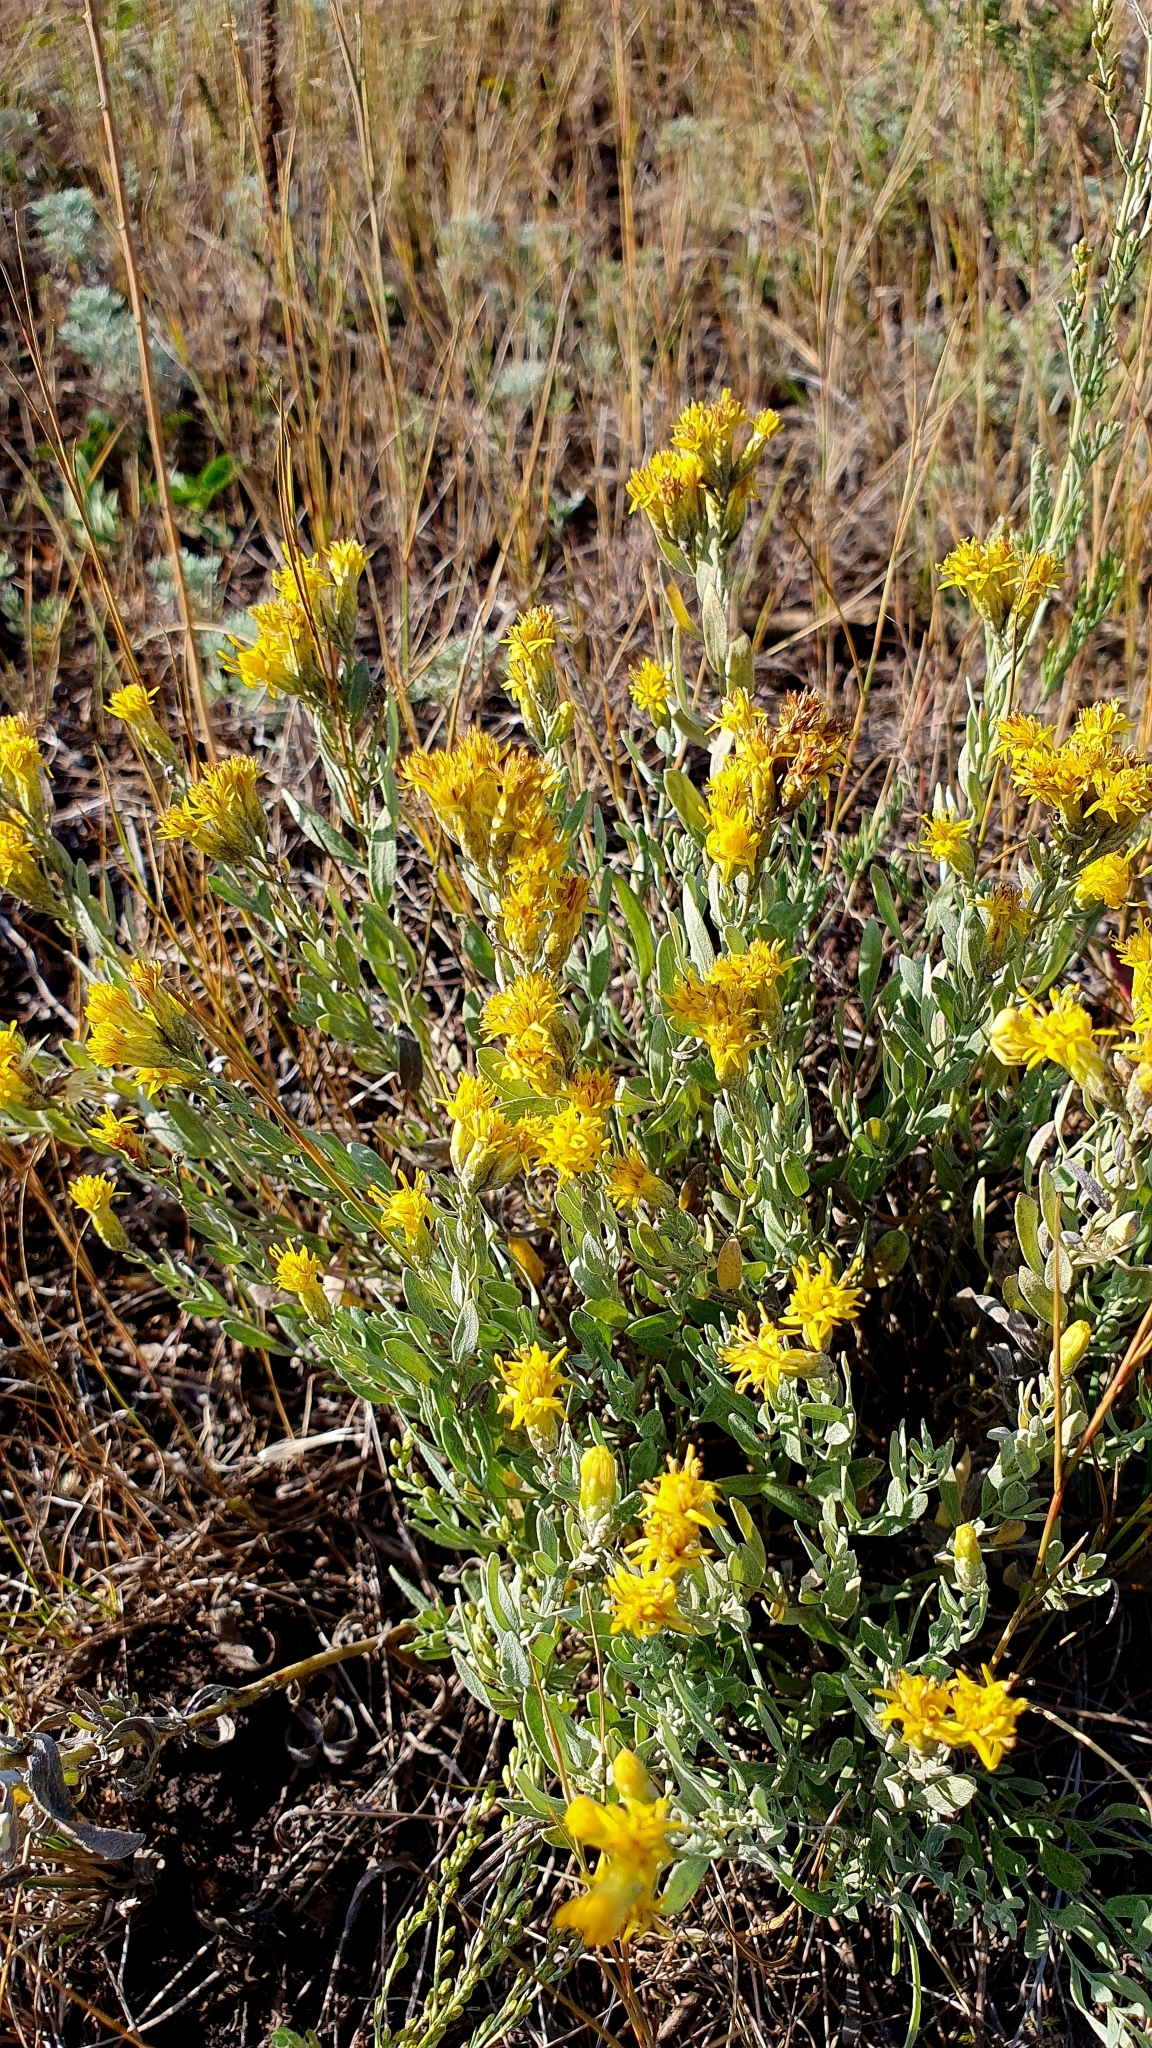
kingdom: Plantae
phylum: Tracheophyta
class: Magnoliopsida
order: Asterales
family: Asteraceae
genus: Galatella
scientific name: Galatella villosa
